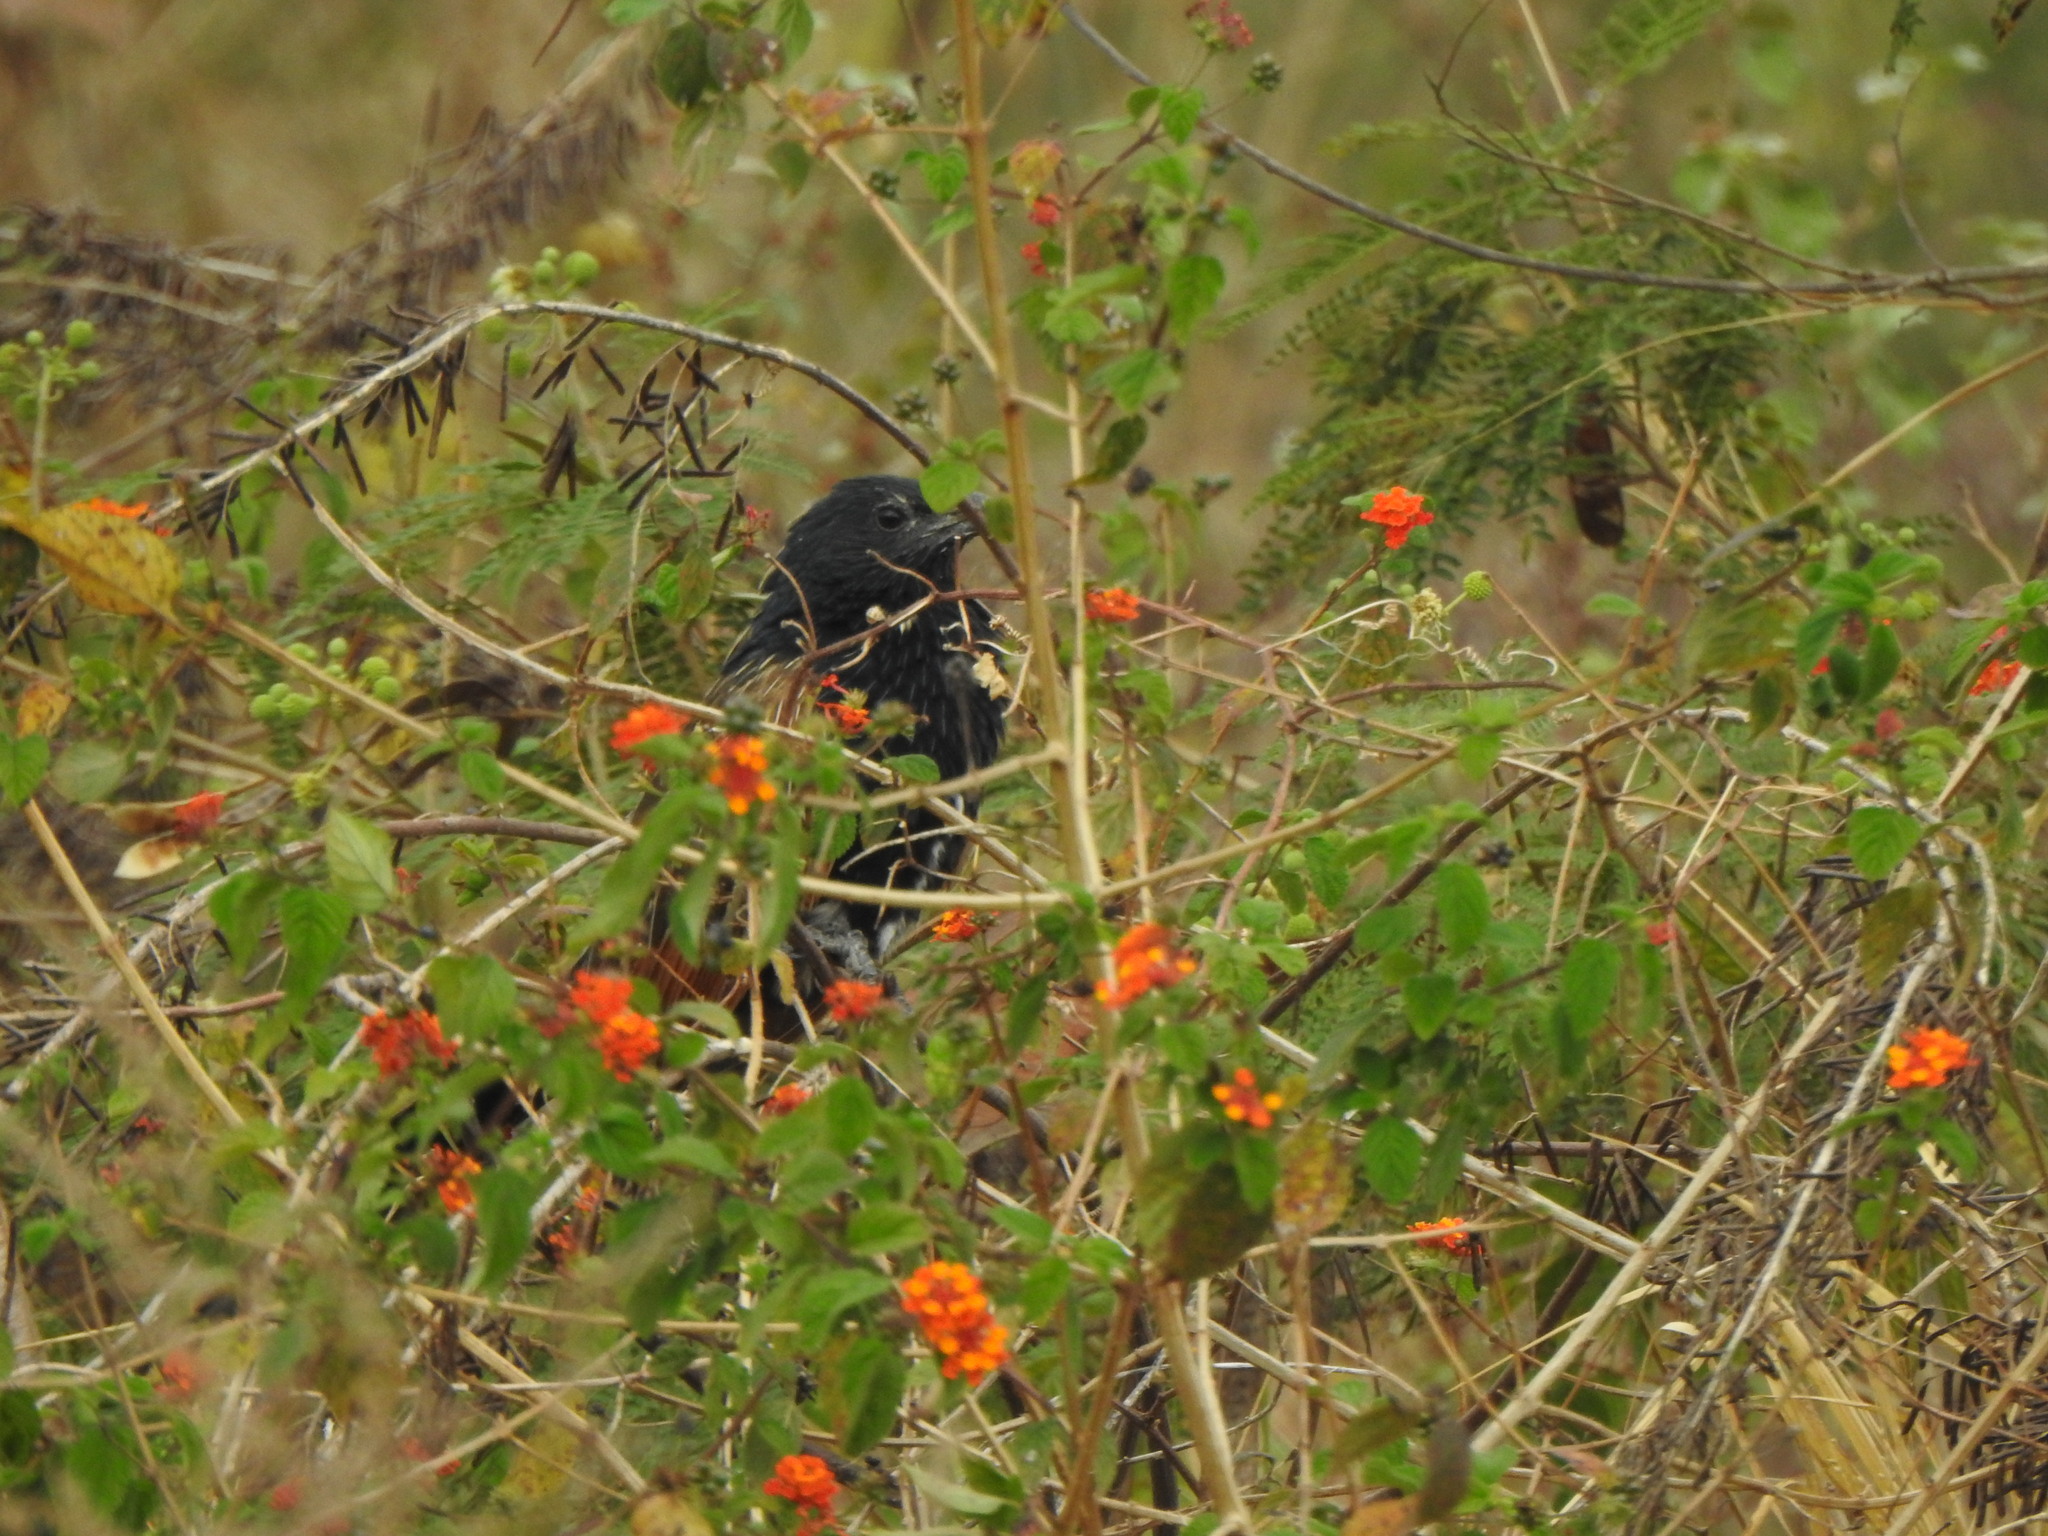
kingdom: Animalia
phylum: Chordata
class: Aves
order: Cuculiformes
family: Cuculidae
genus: Centropus
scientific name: Centropus bengalensis
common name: Lesser coucal
